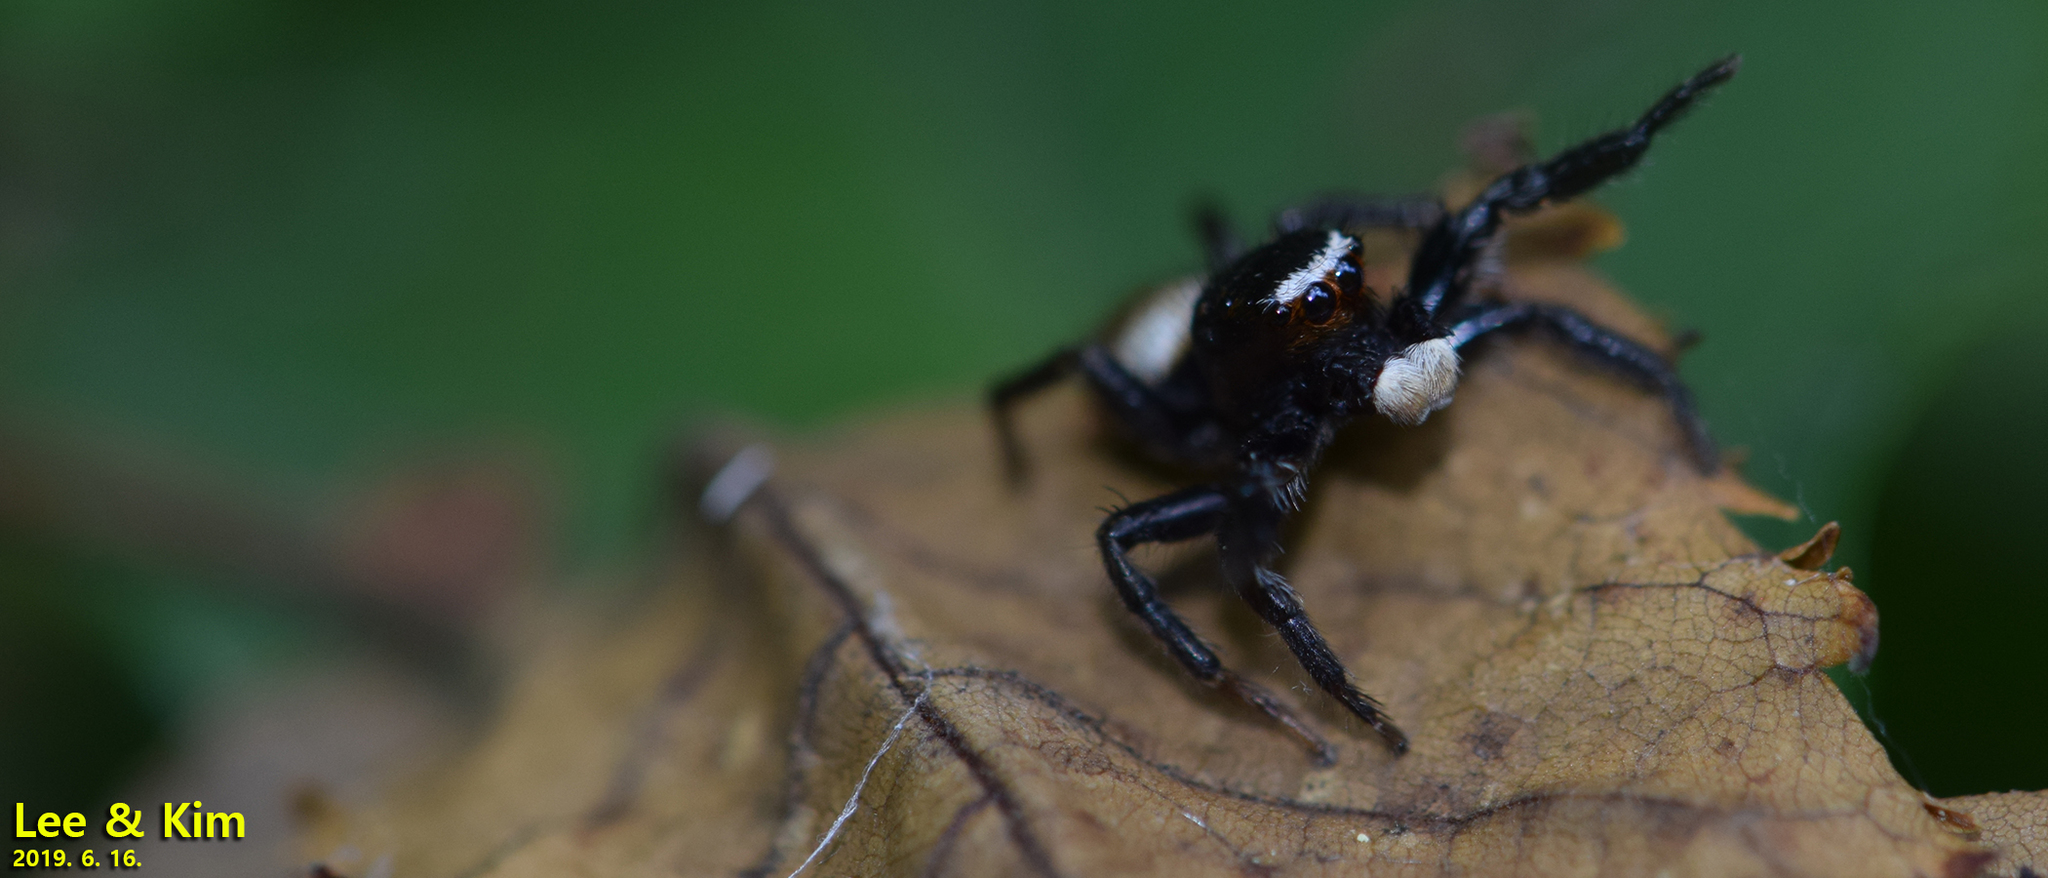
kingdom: Animalia
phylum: Arthropoda
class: Arachnida
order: Araneae
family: Salticidae
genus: Evarcha
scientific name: Evarcha albaria
